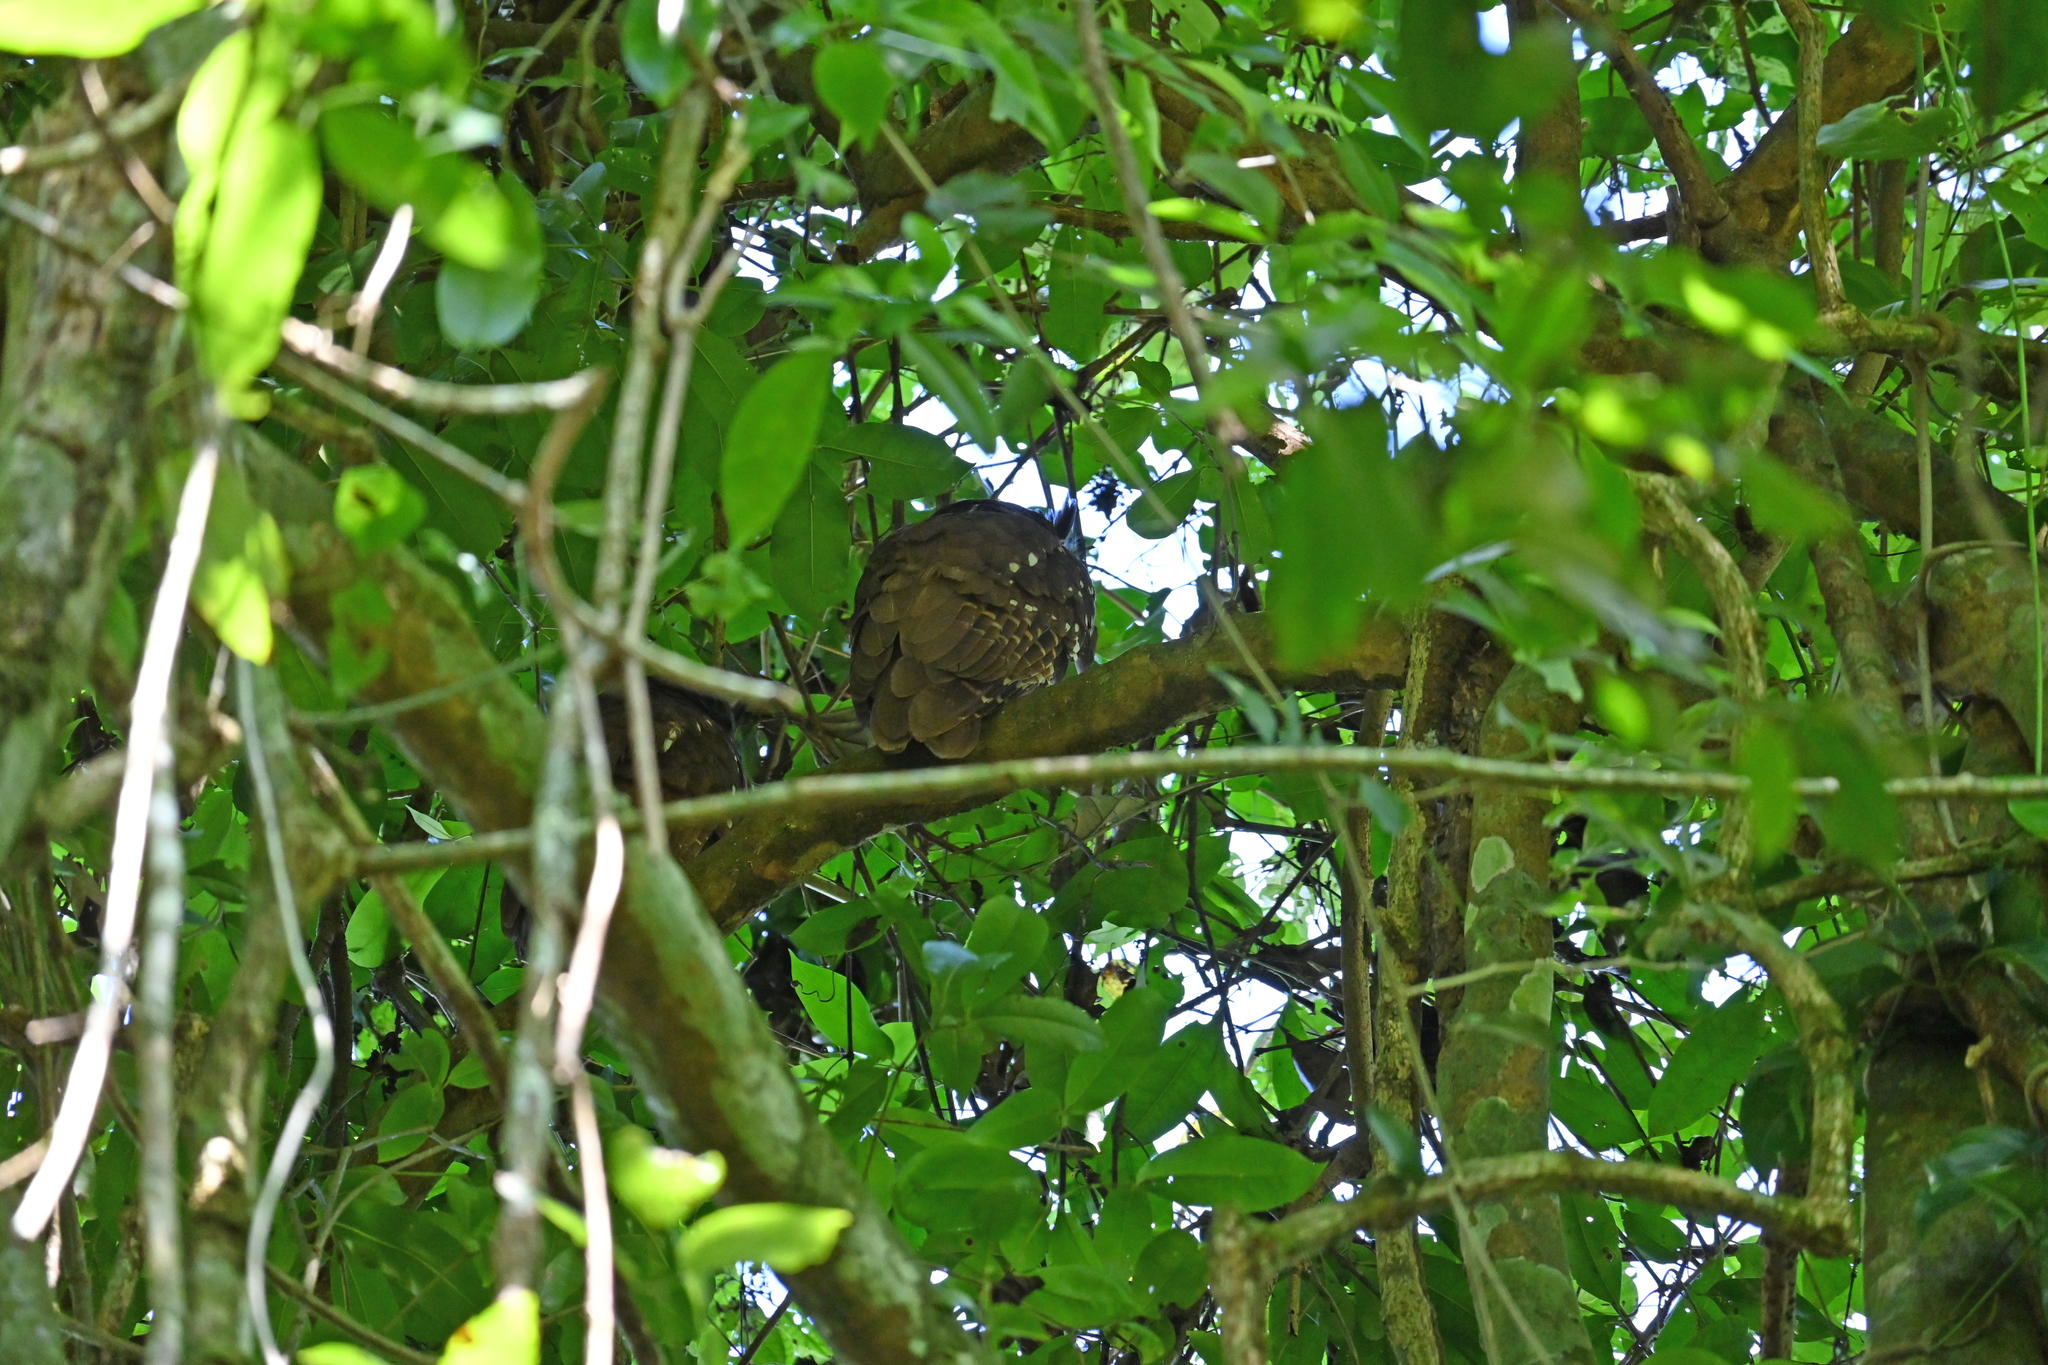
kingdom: Animalia
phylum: Chordata
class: Aves
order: Strigiformes
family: Strigidae
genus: Lophostrix
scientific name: Lophostrix cristata
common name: Crested owl
